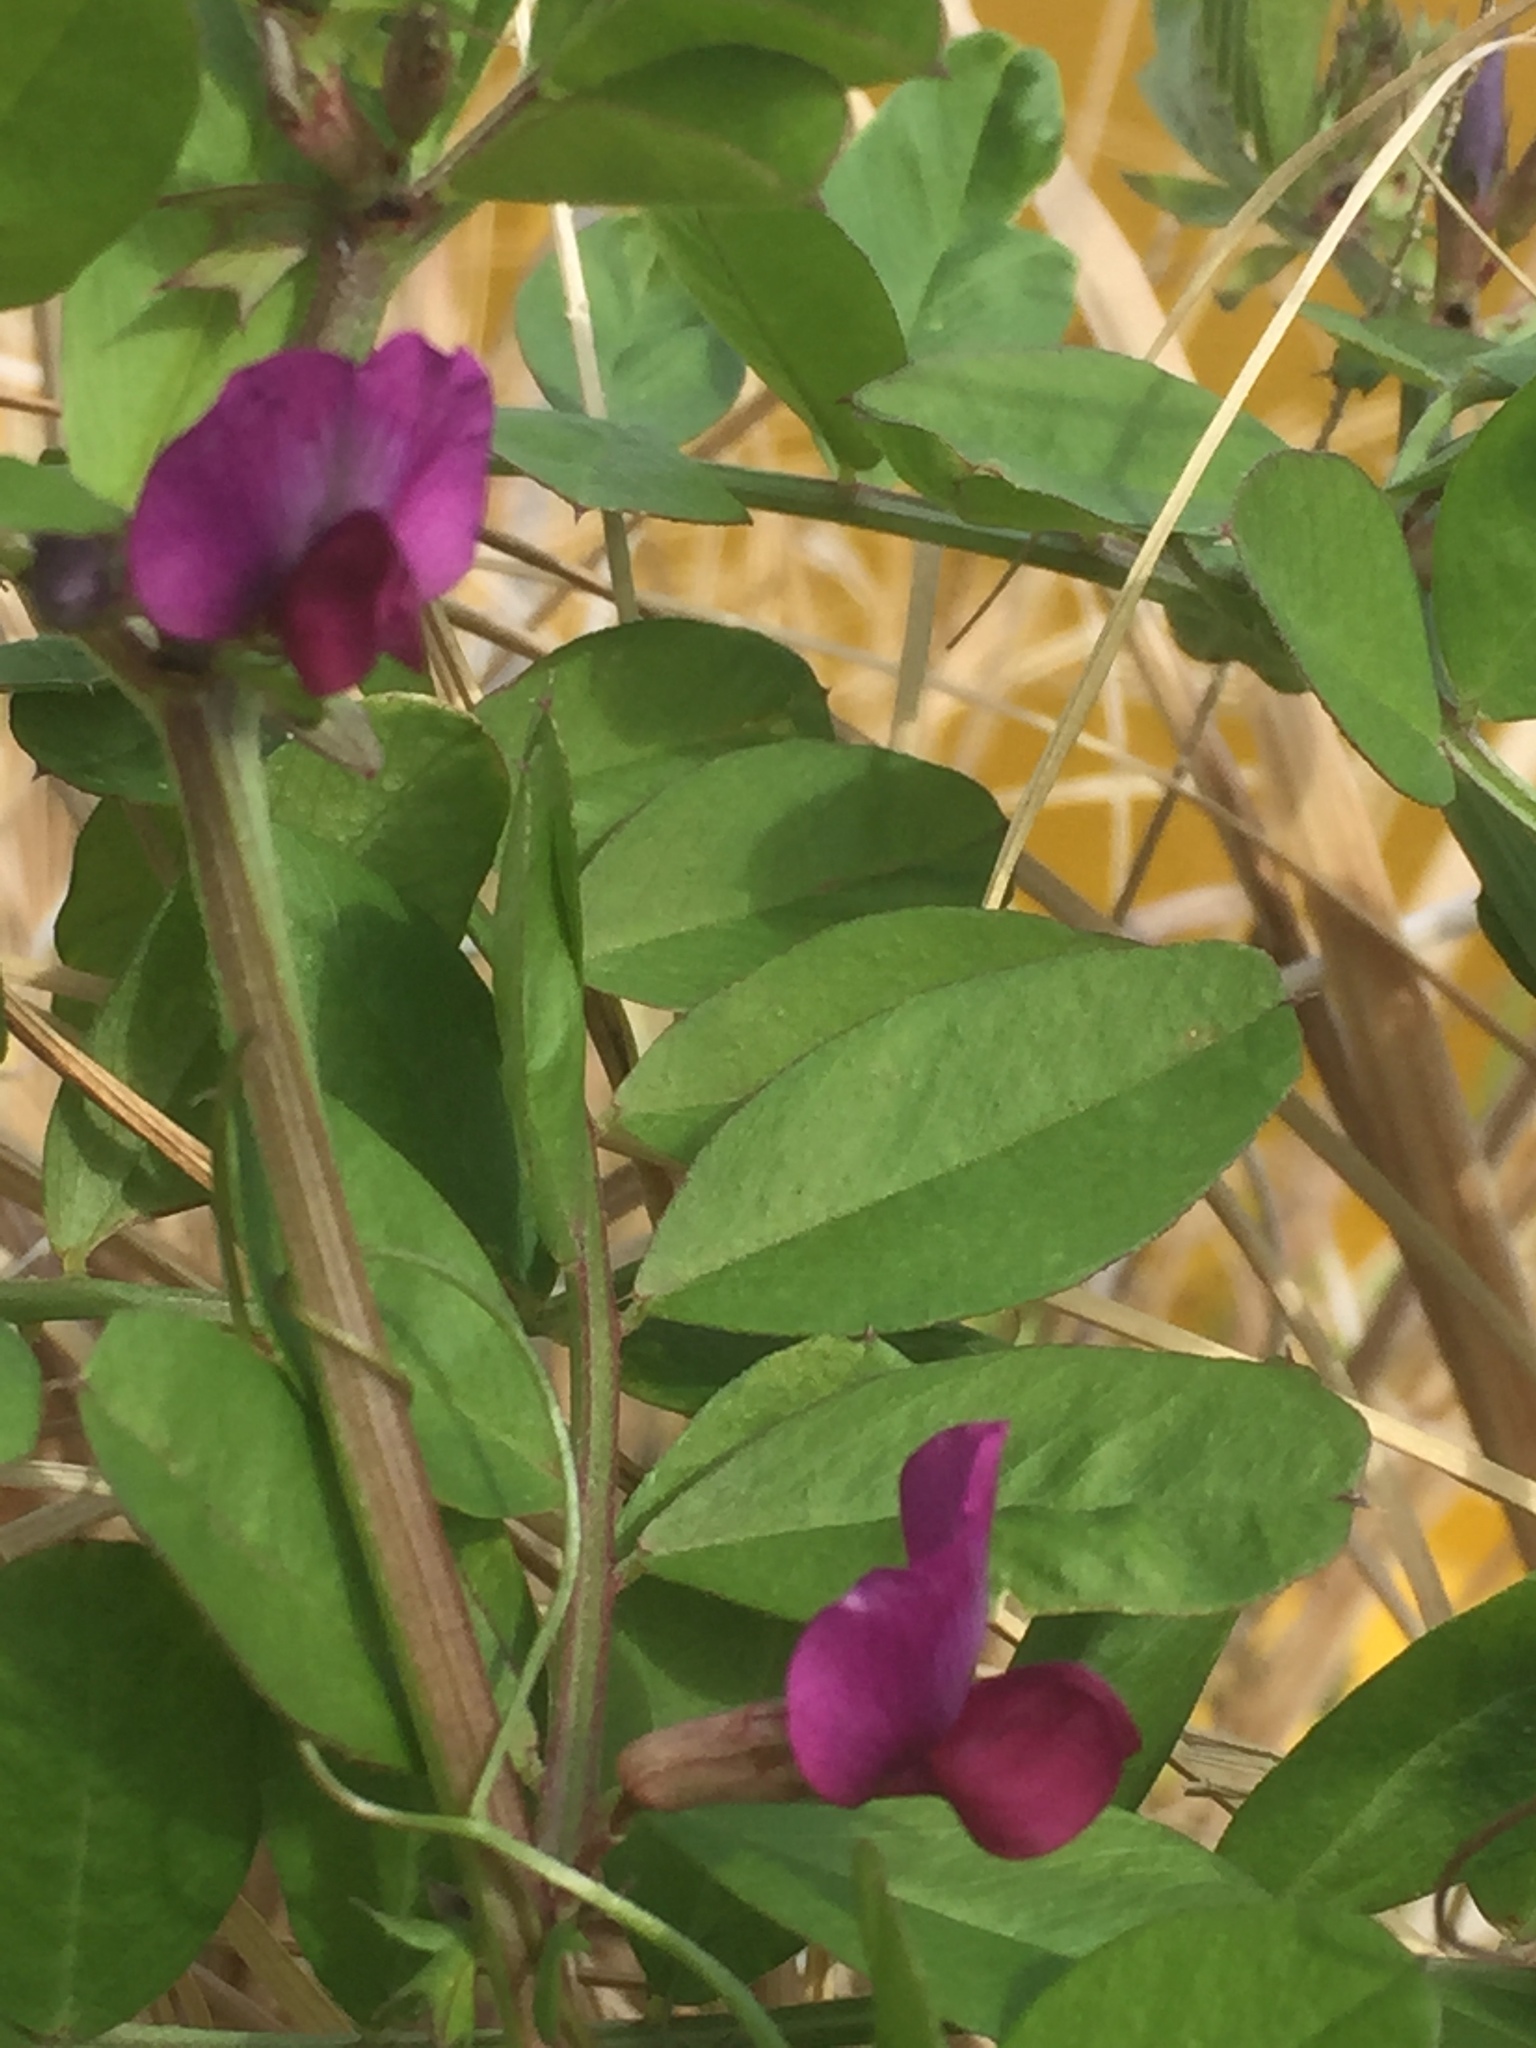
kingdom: Plantae
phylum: Tracheophyta
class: Magnoliopsida
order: Fabales
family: Fabaceae
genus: Vicia
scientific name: Vicia sativa
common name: Garden vetch
